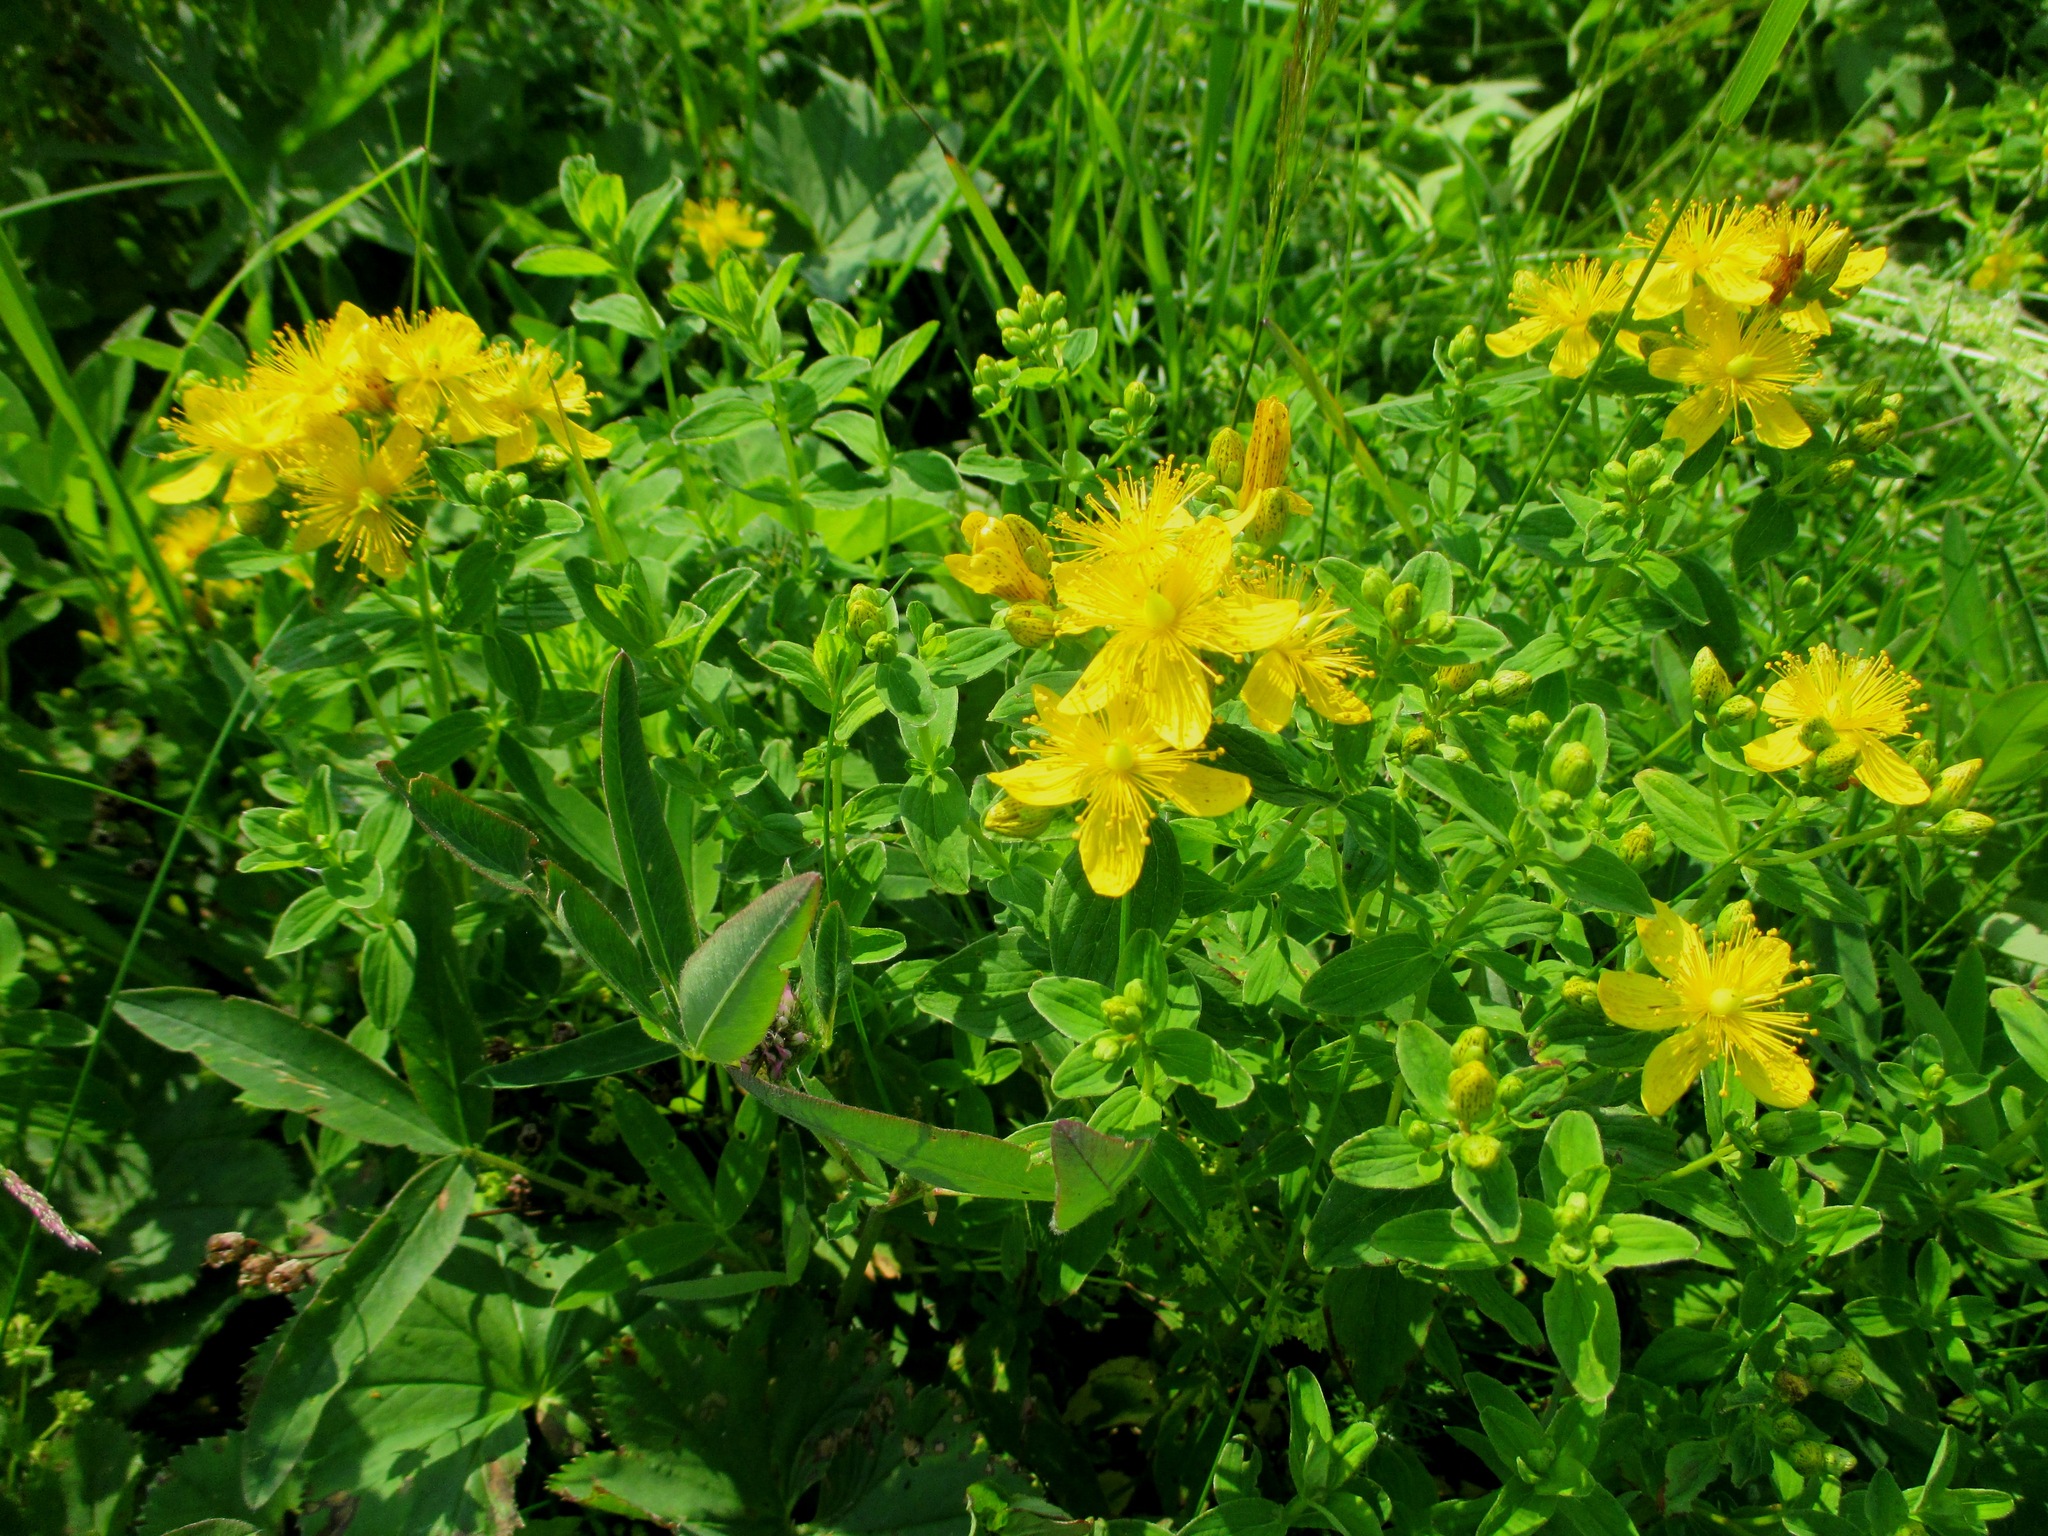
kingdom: Plantae
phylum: Tracheophyta
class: Magnoliopsida
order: Malpighiales
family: Hypericaceae
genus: Hypericum
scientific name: Hypericum maculatum
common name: Imperforate st. john's-wort
